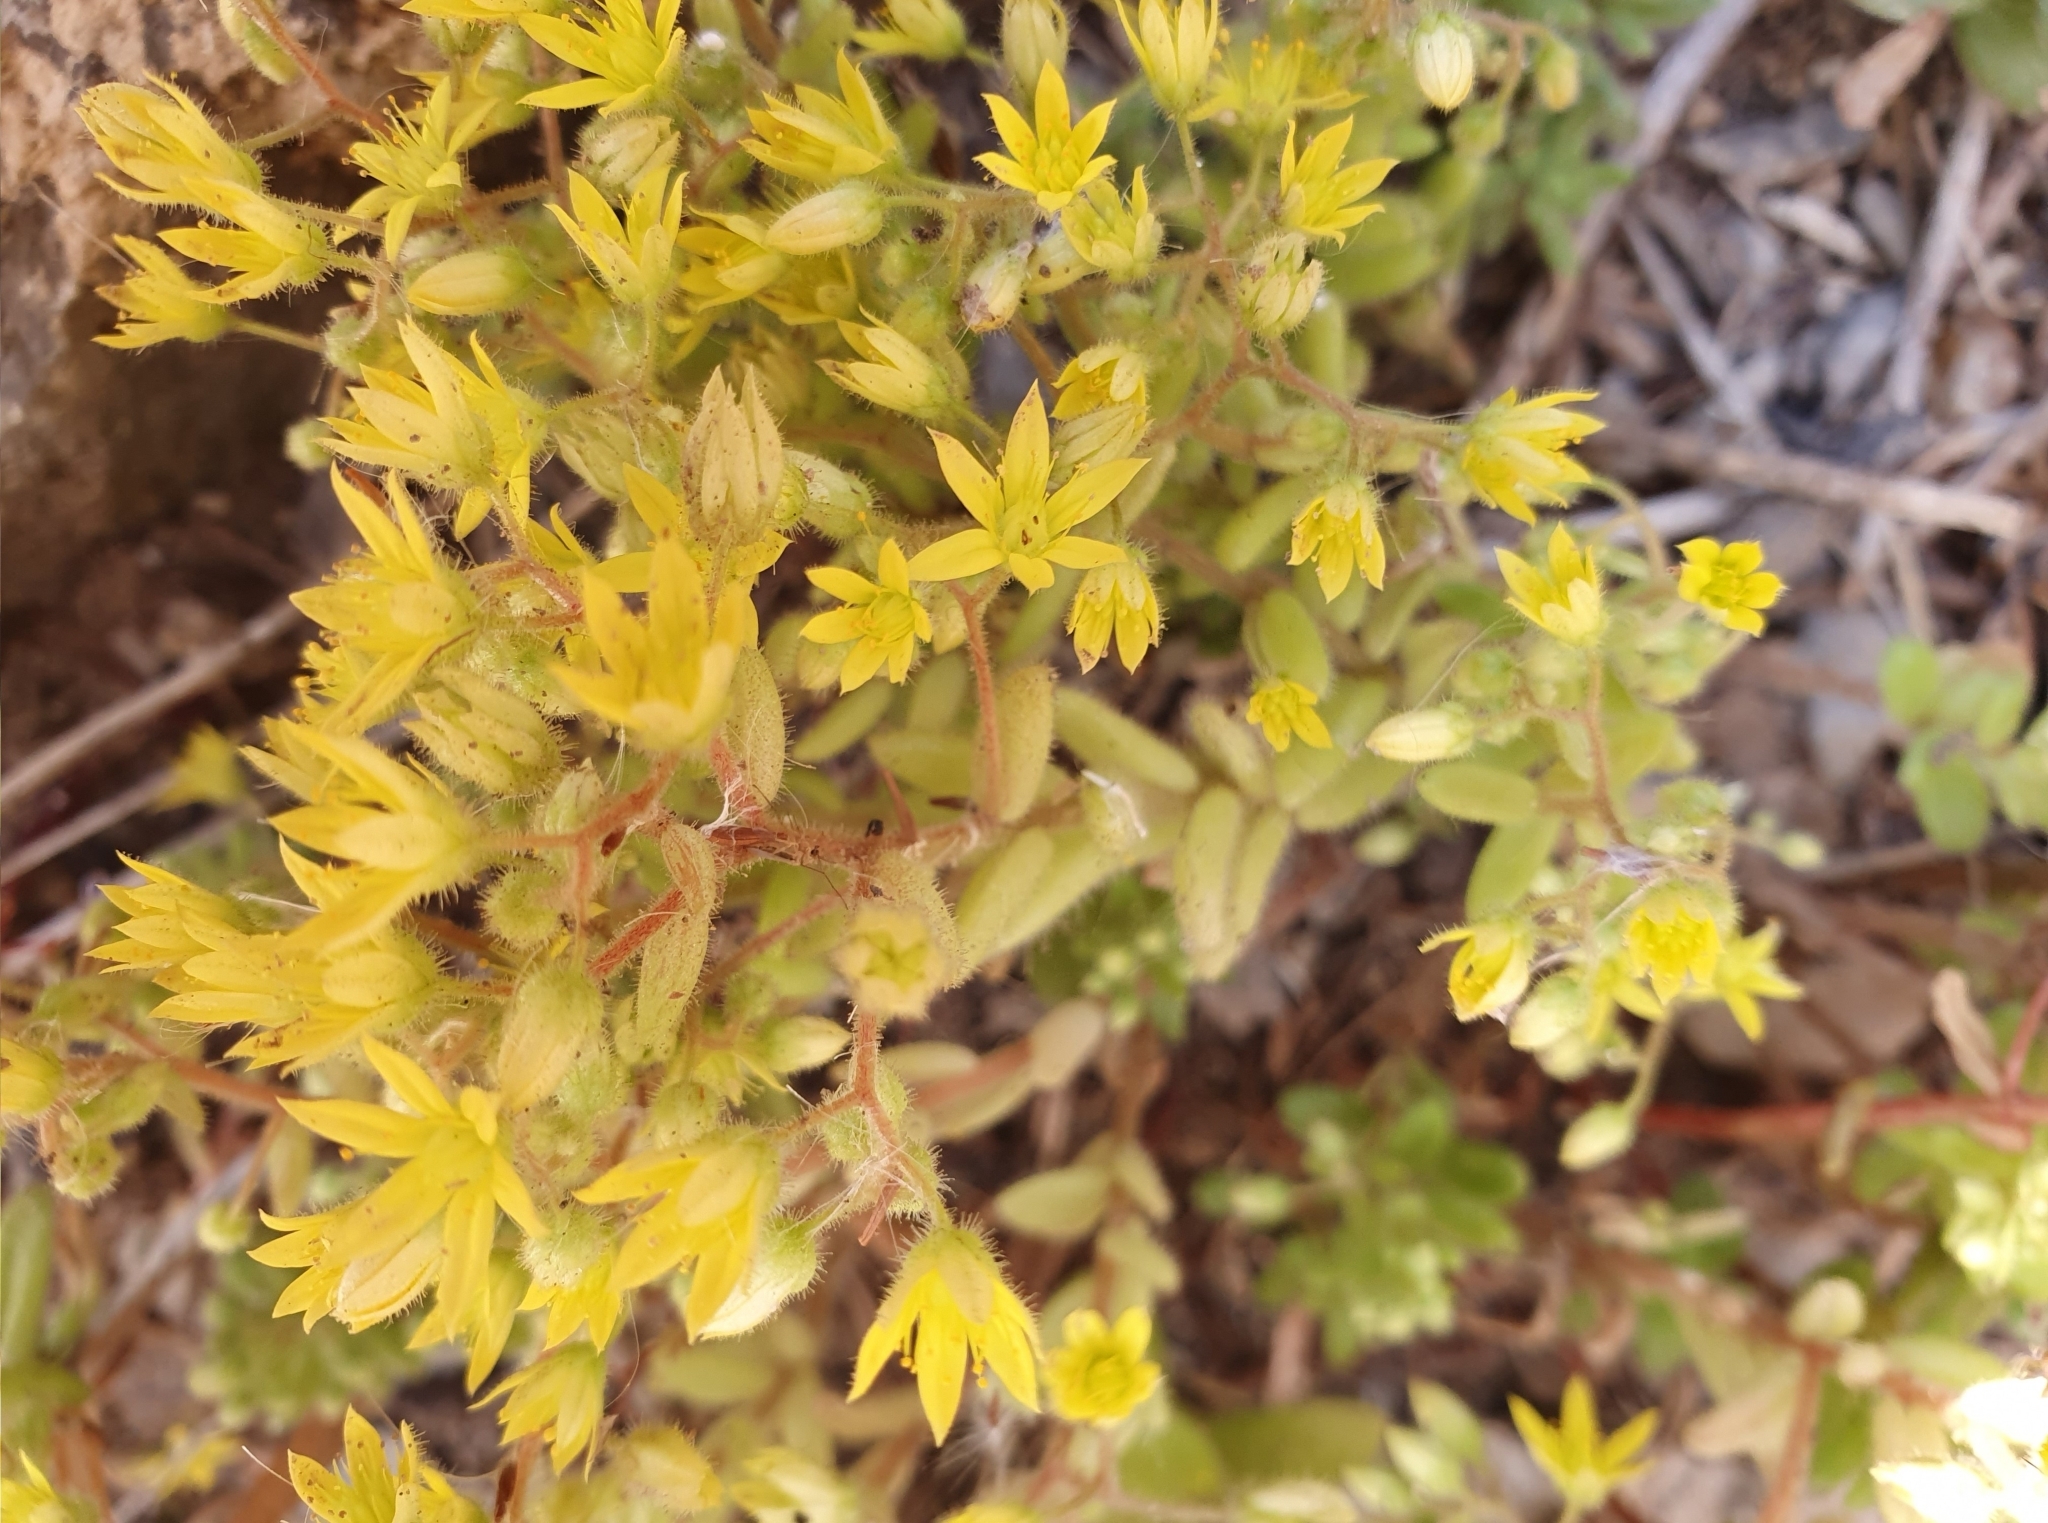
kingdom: Plantae
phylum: Tracheophyta
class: Magnoliopsida
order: Saxifragales
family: Crassulaceae
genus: Sedum
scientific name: Sedum pubescens
